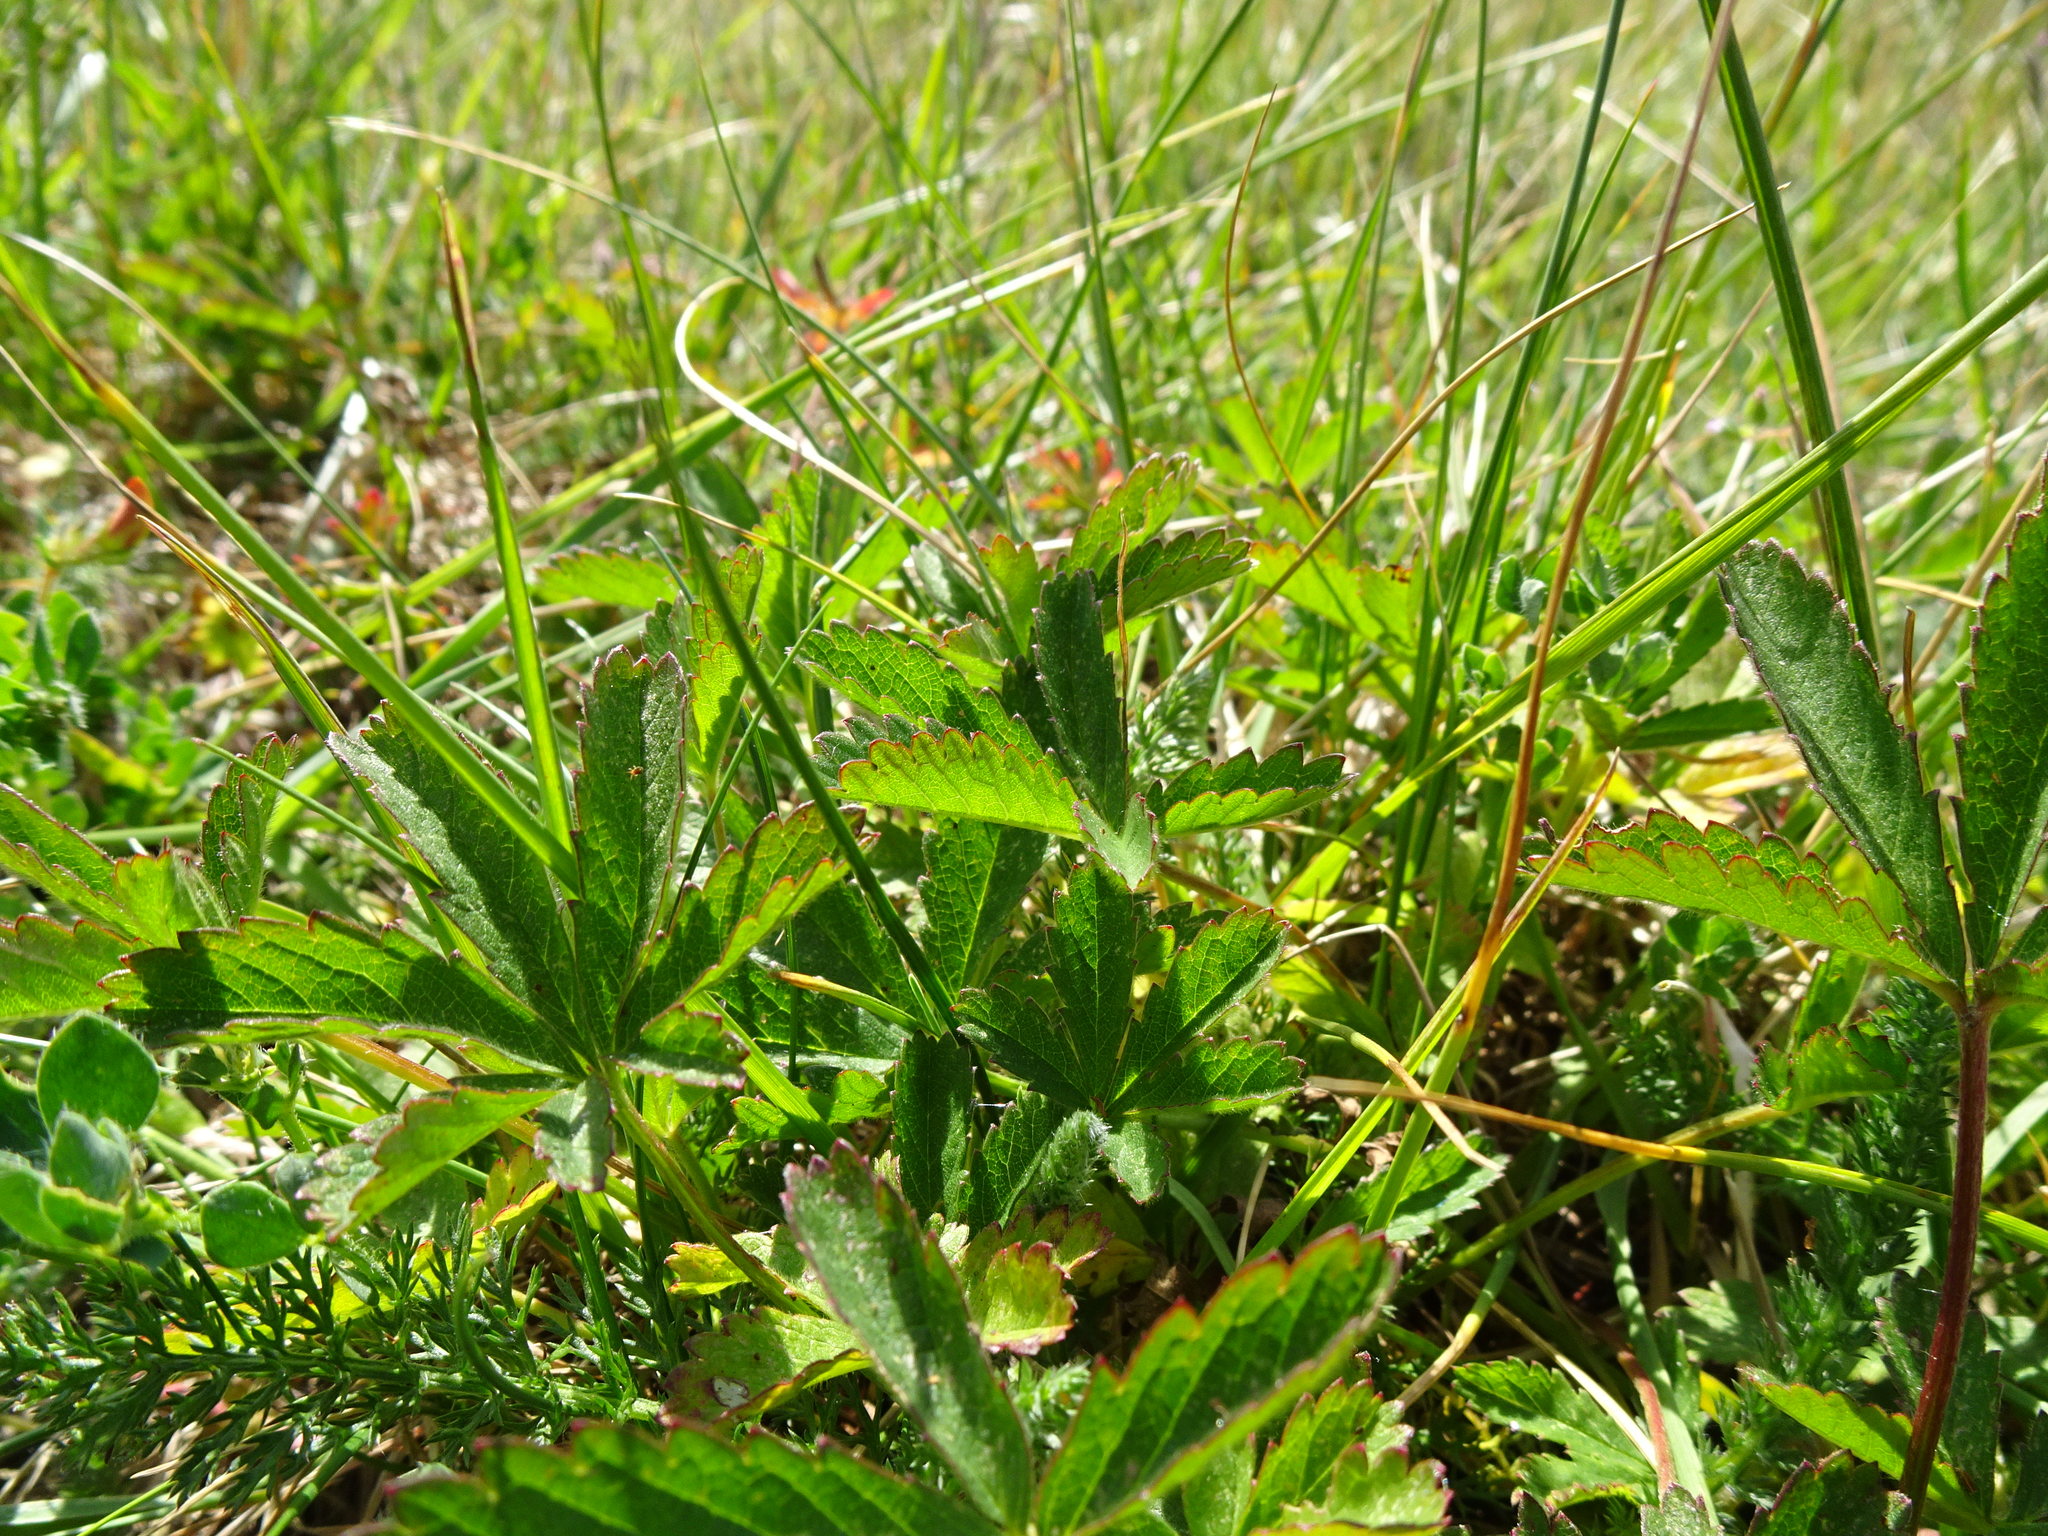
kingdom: Plantae
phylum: Tracheophyta
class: Magnoliopsida
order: Rosales
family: Rosaceae
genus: Potentilla
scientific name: Potentilla reptans
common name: Creeping cinquefoil
